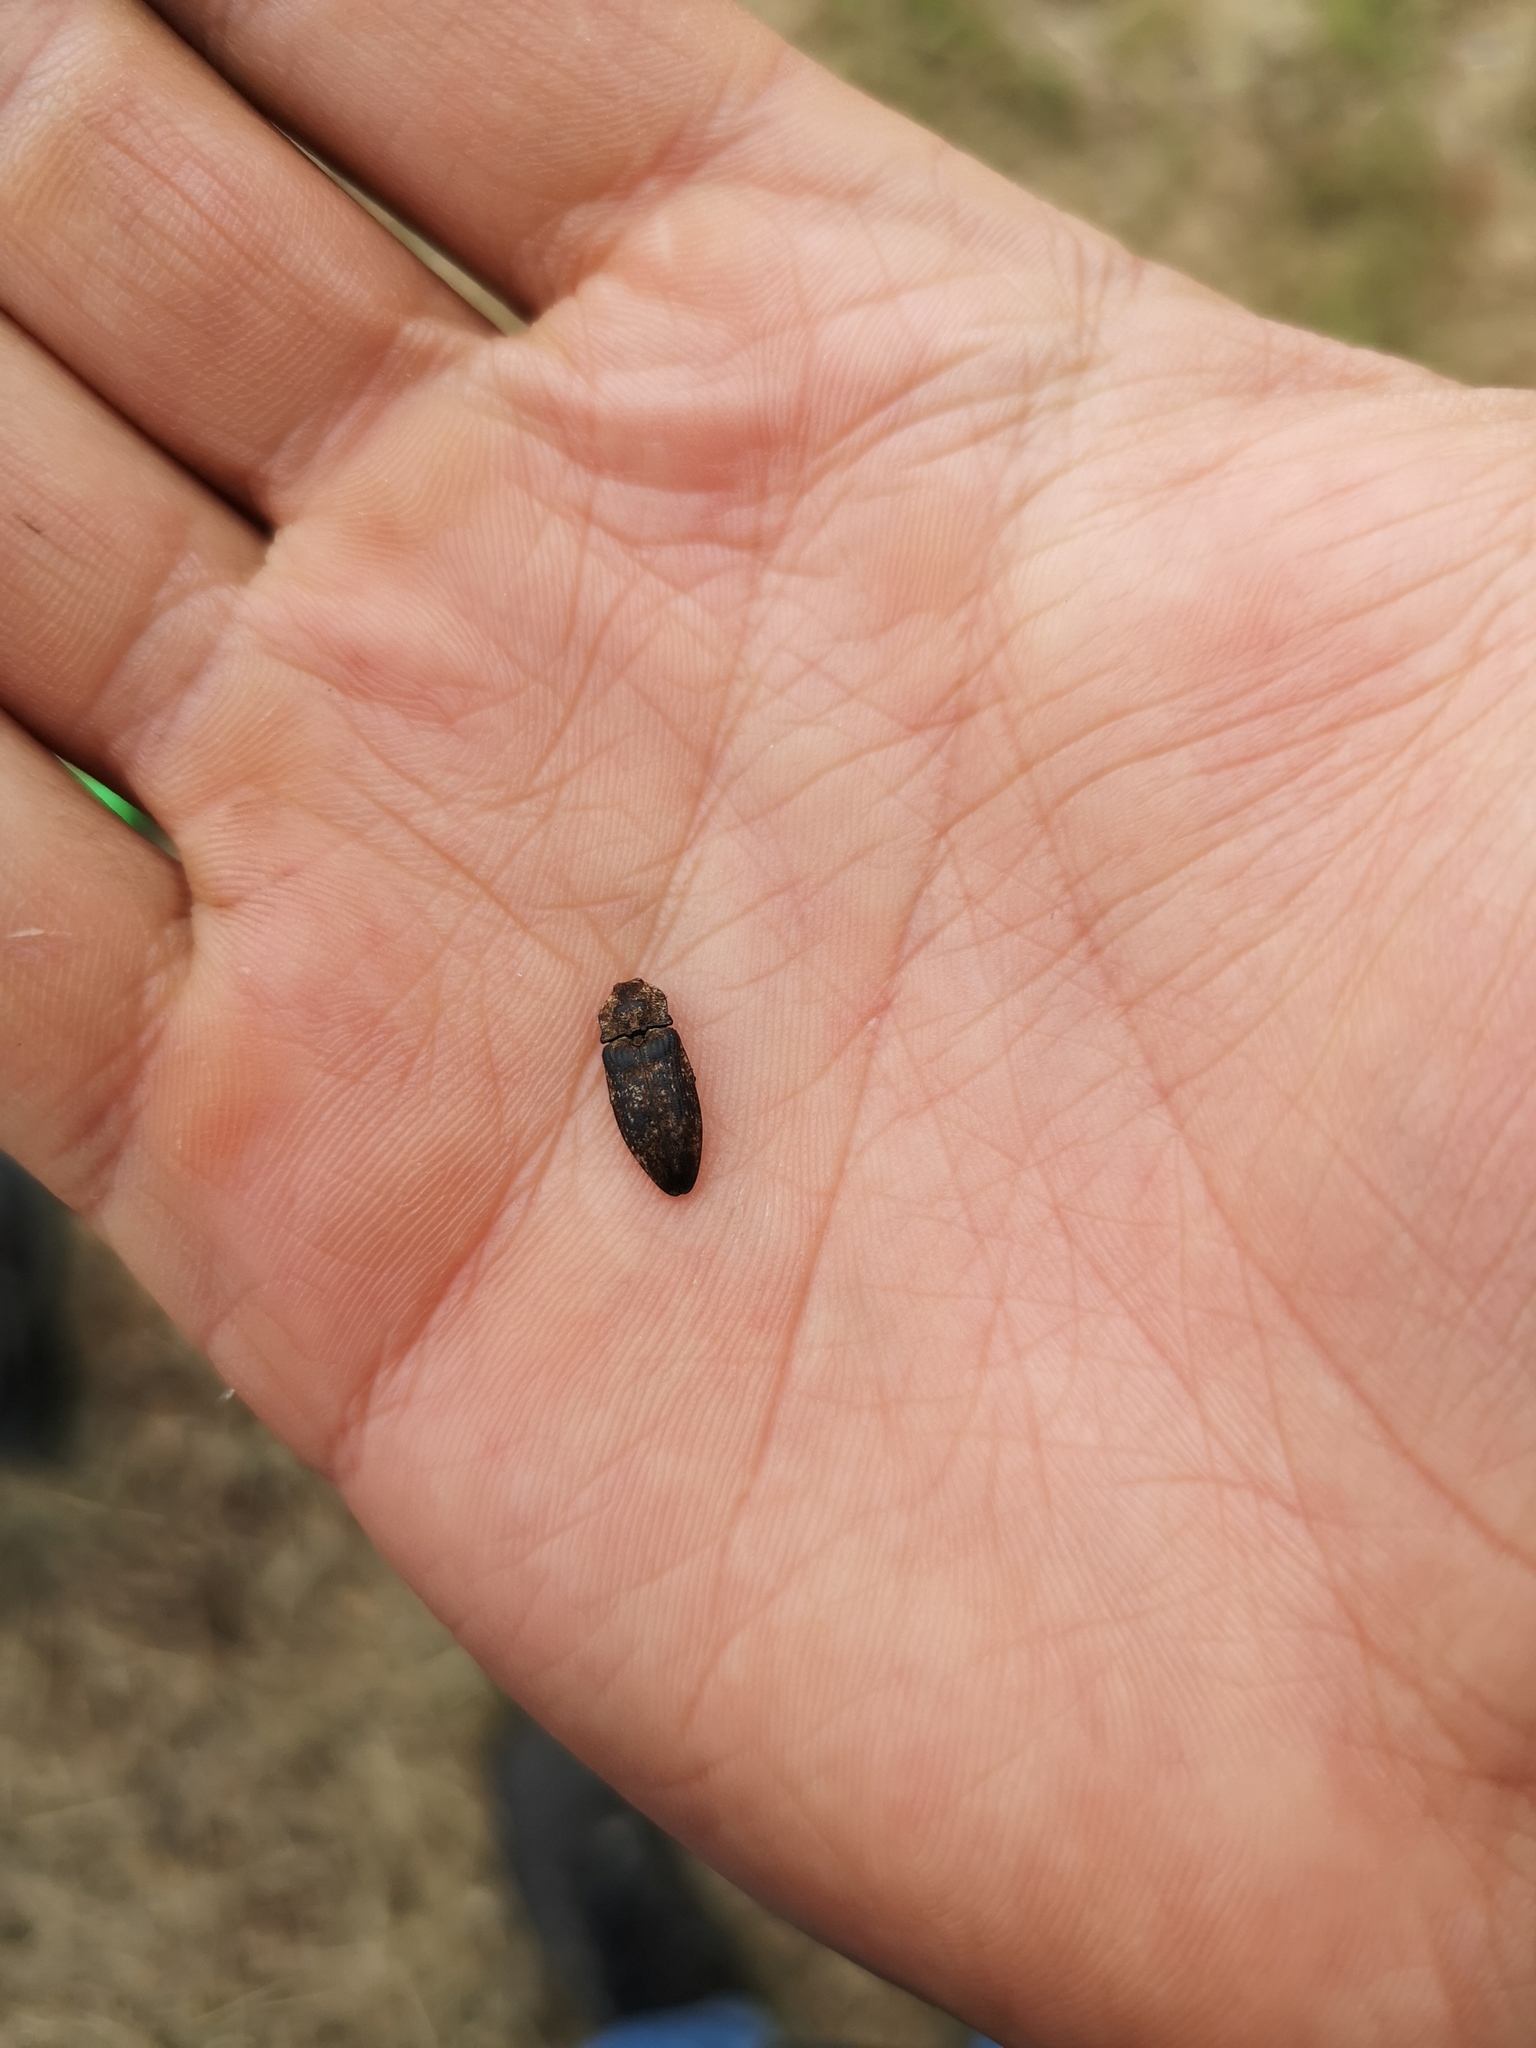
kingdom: Animalia
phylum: Arthropoda
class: Insecta
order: Coleoptera
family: Elateridae
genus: Agrypnus
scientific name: Agrypnus murinus
